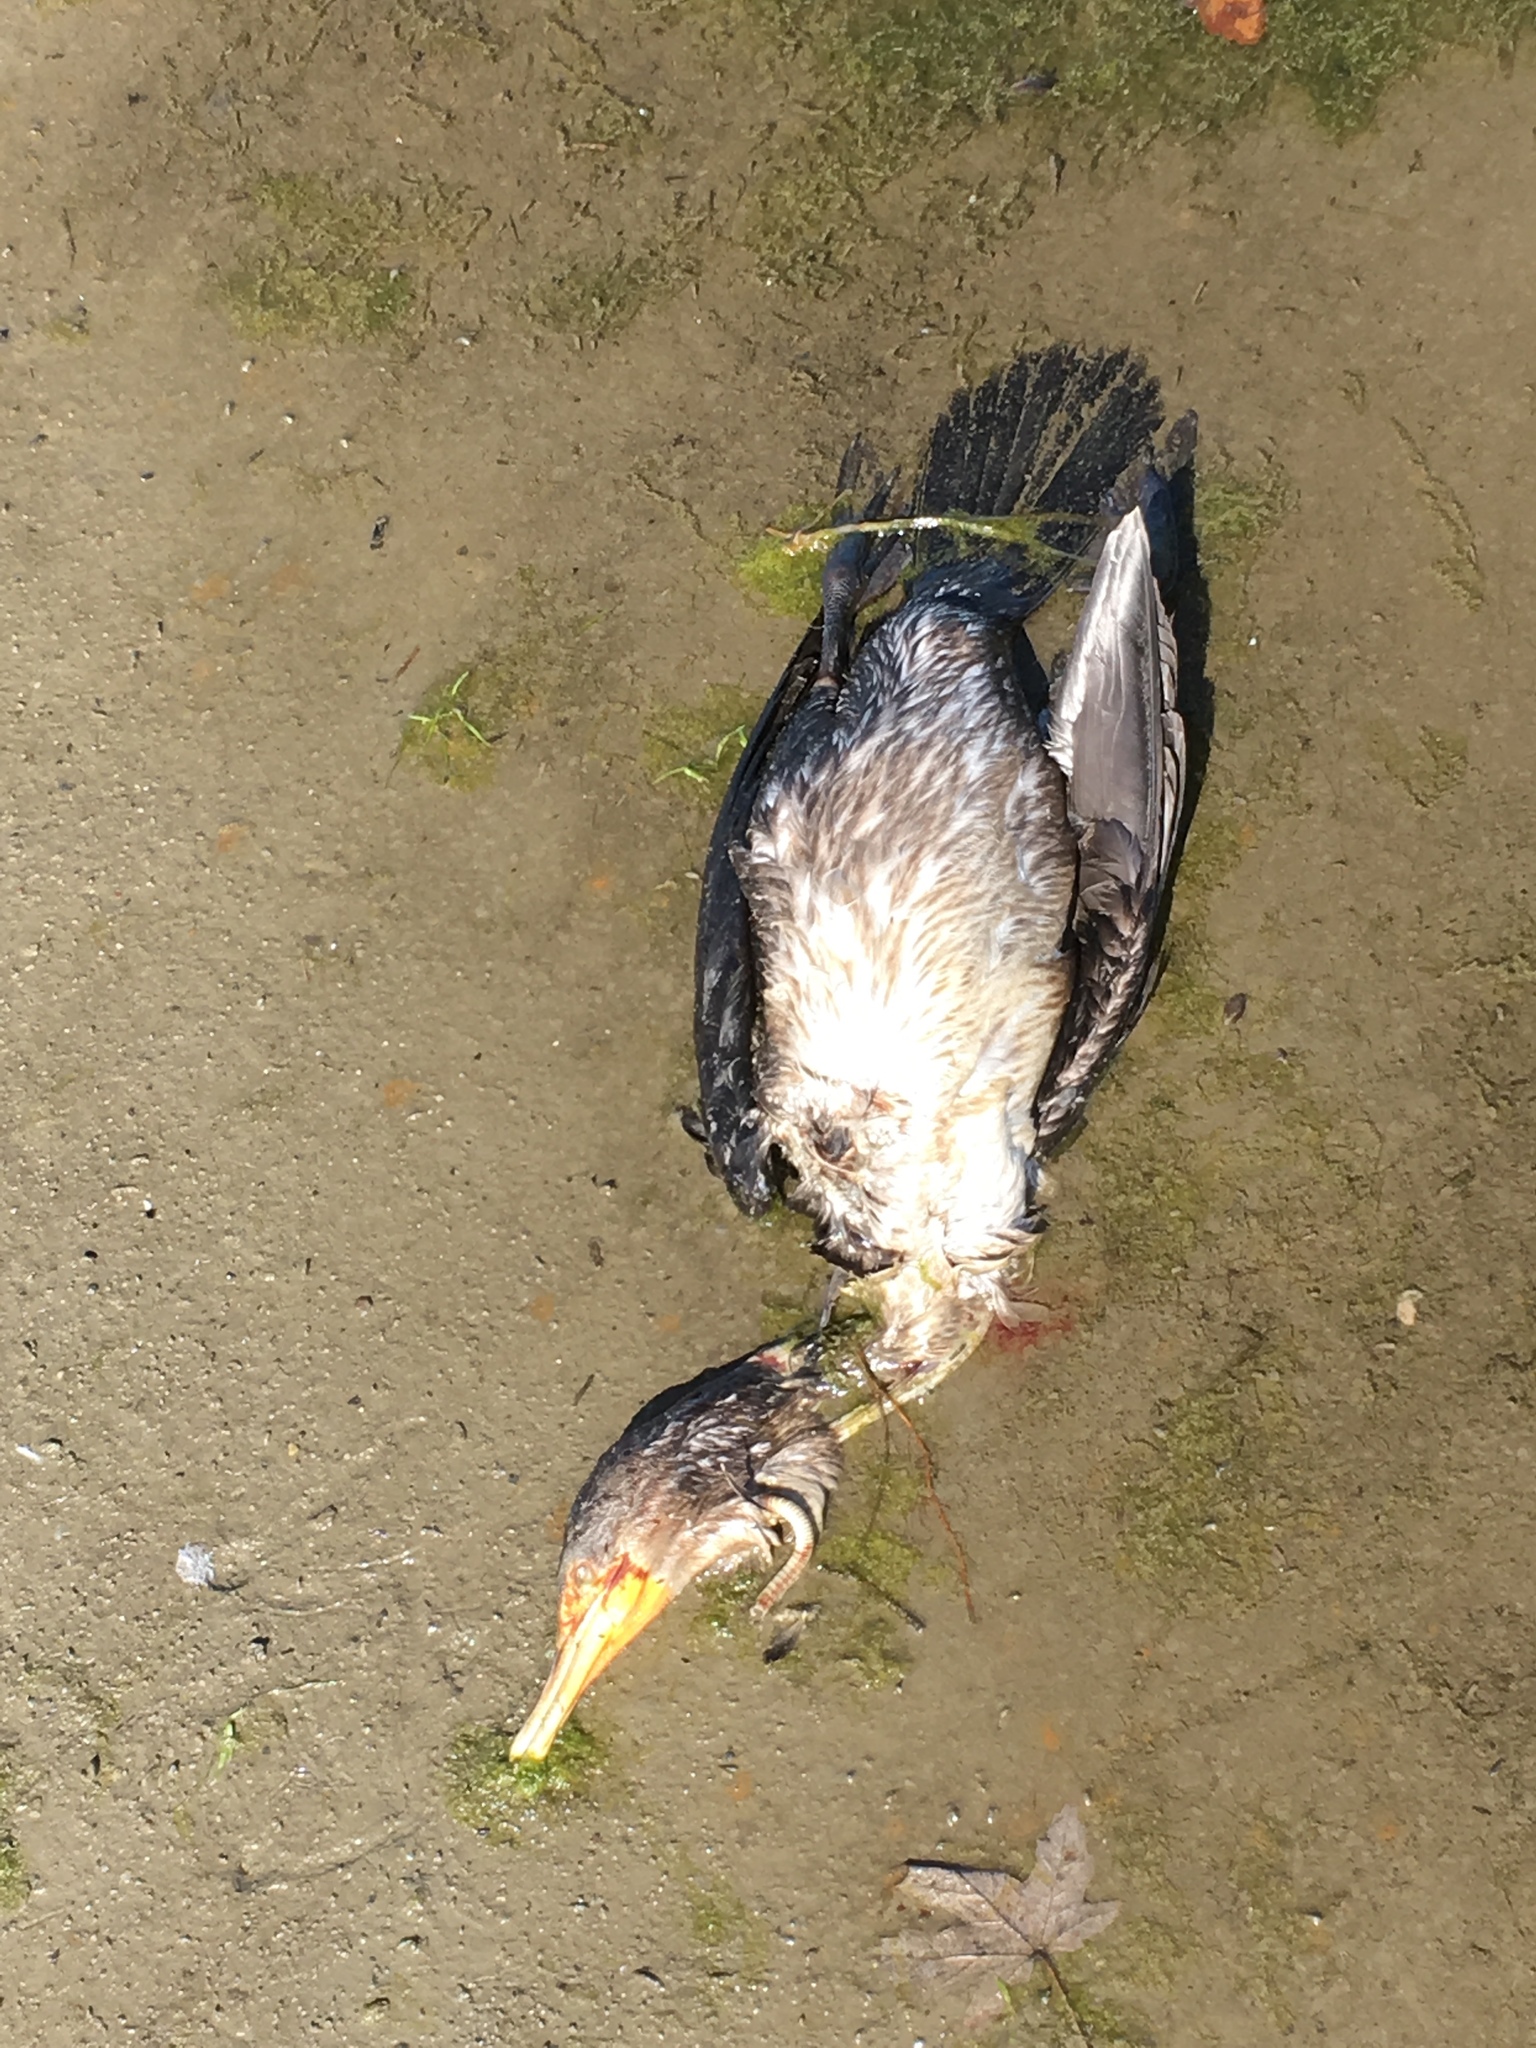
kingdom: Animalia
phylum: Chordata
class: Aves
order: Suliformes
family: Phalacrocoracidae
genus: Phalacrocorax
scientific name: Phalacrocorax auritus
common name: Double-crested cormorant
